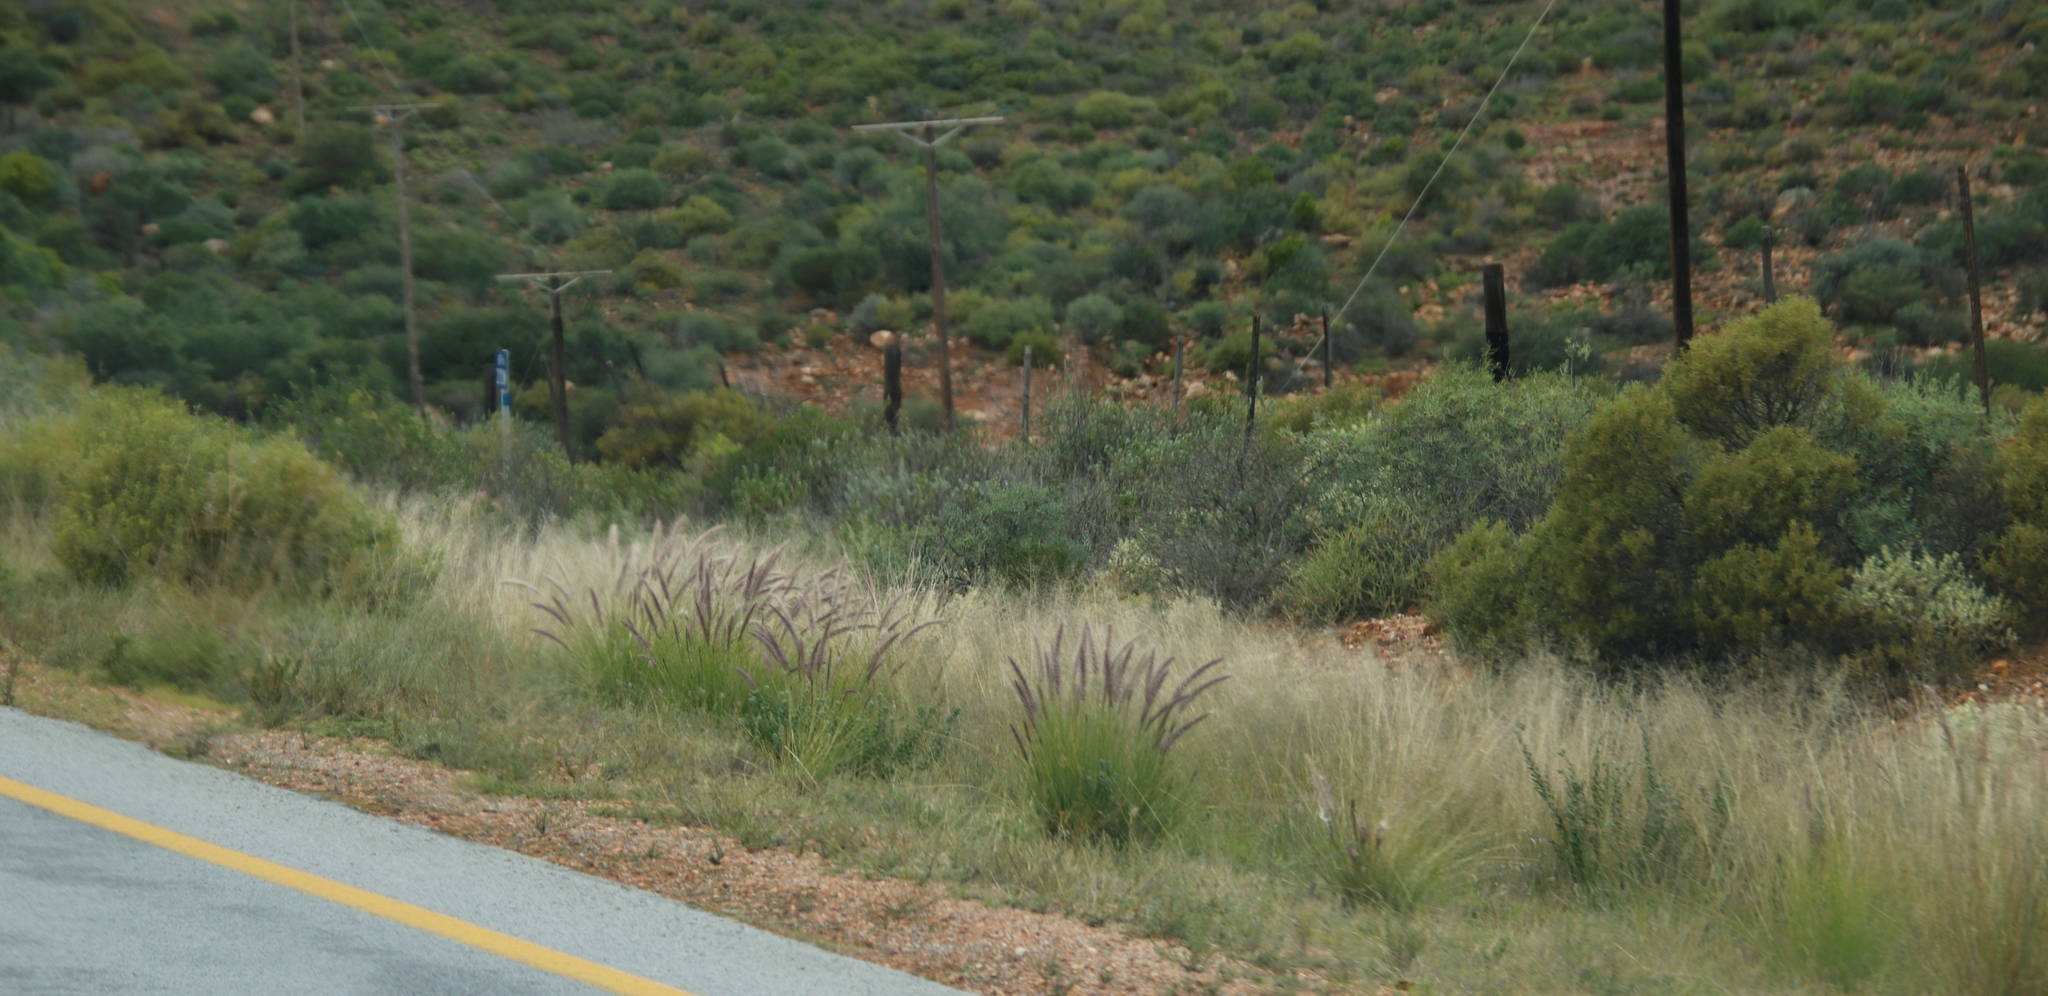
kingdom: Plantae
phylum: Tracheophyta
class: Liliopsida
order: Poales
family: Poaceae
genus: Cenchrus
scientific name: Cenchrus setaceus
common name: Crimson fountaingrass
